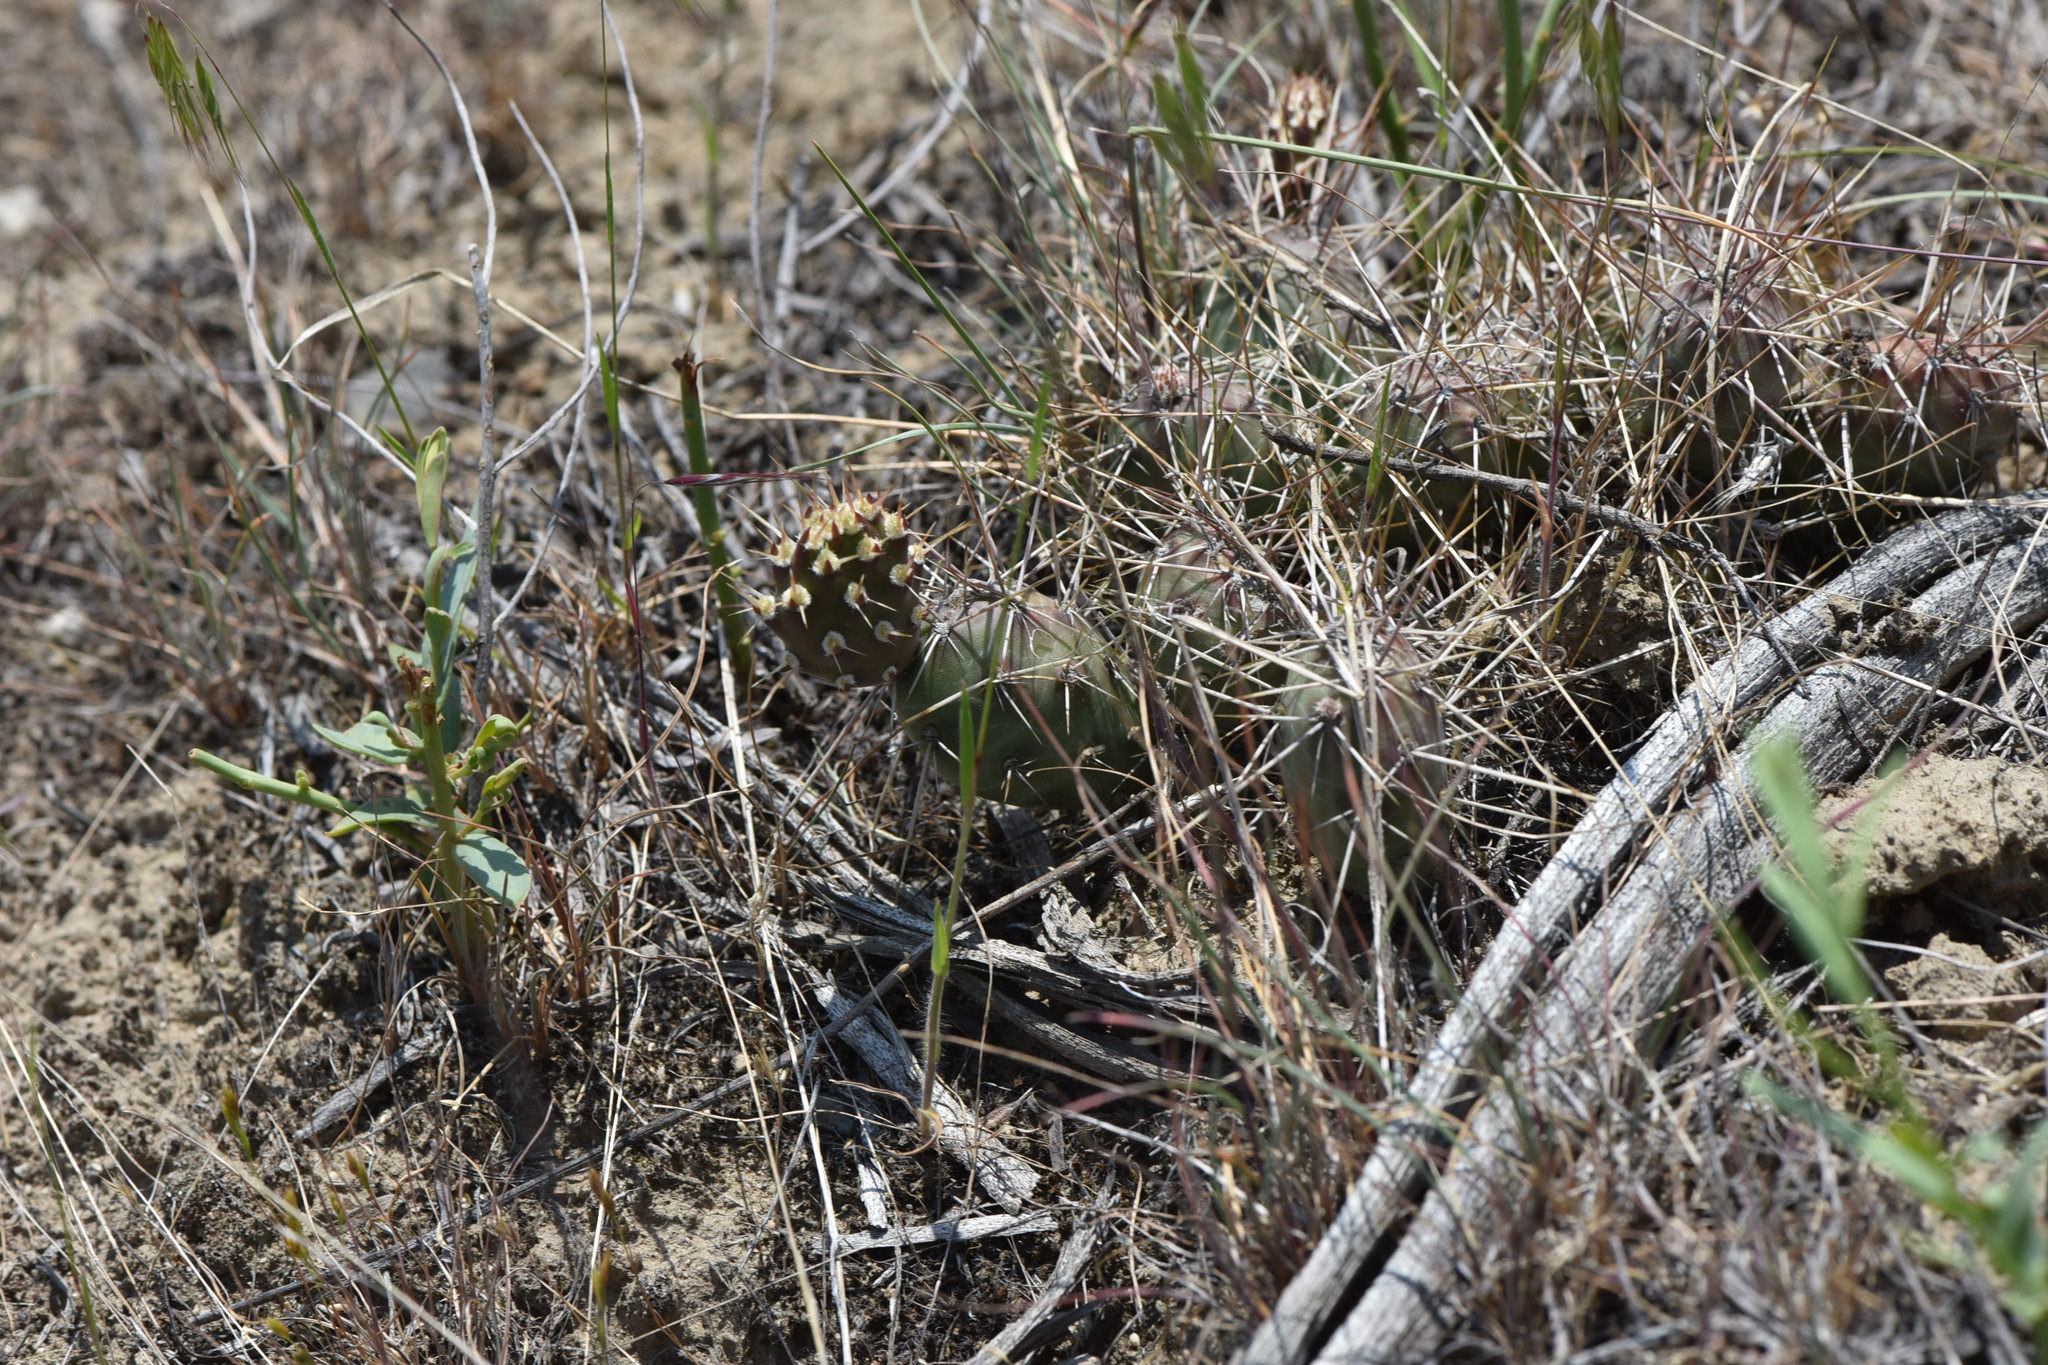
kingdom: Plantae
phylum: Tracheophyta
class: Magnoliopsida
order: Caryophyllales
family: Cactaceae
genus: Opuntia
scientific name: Opuntia fragilis
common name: Brittle cactus
